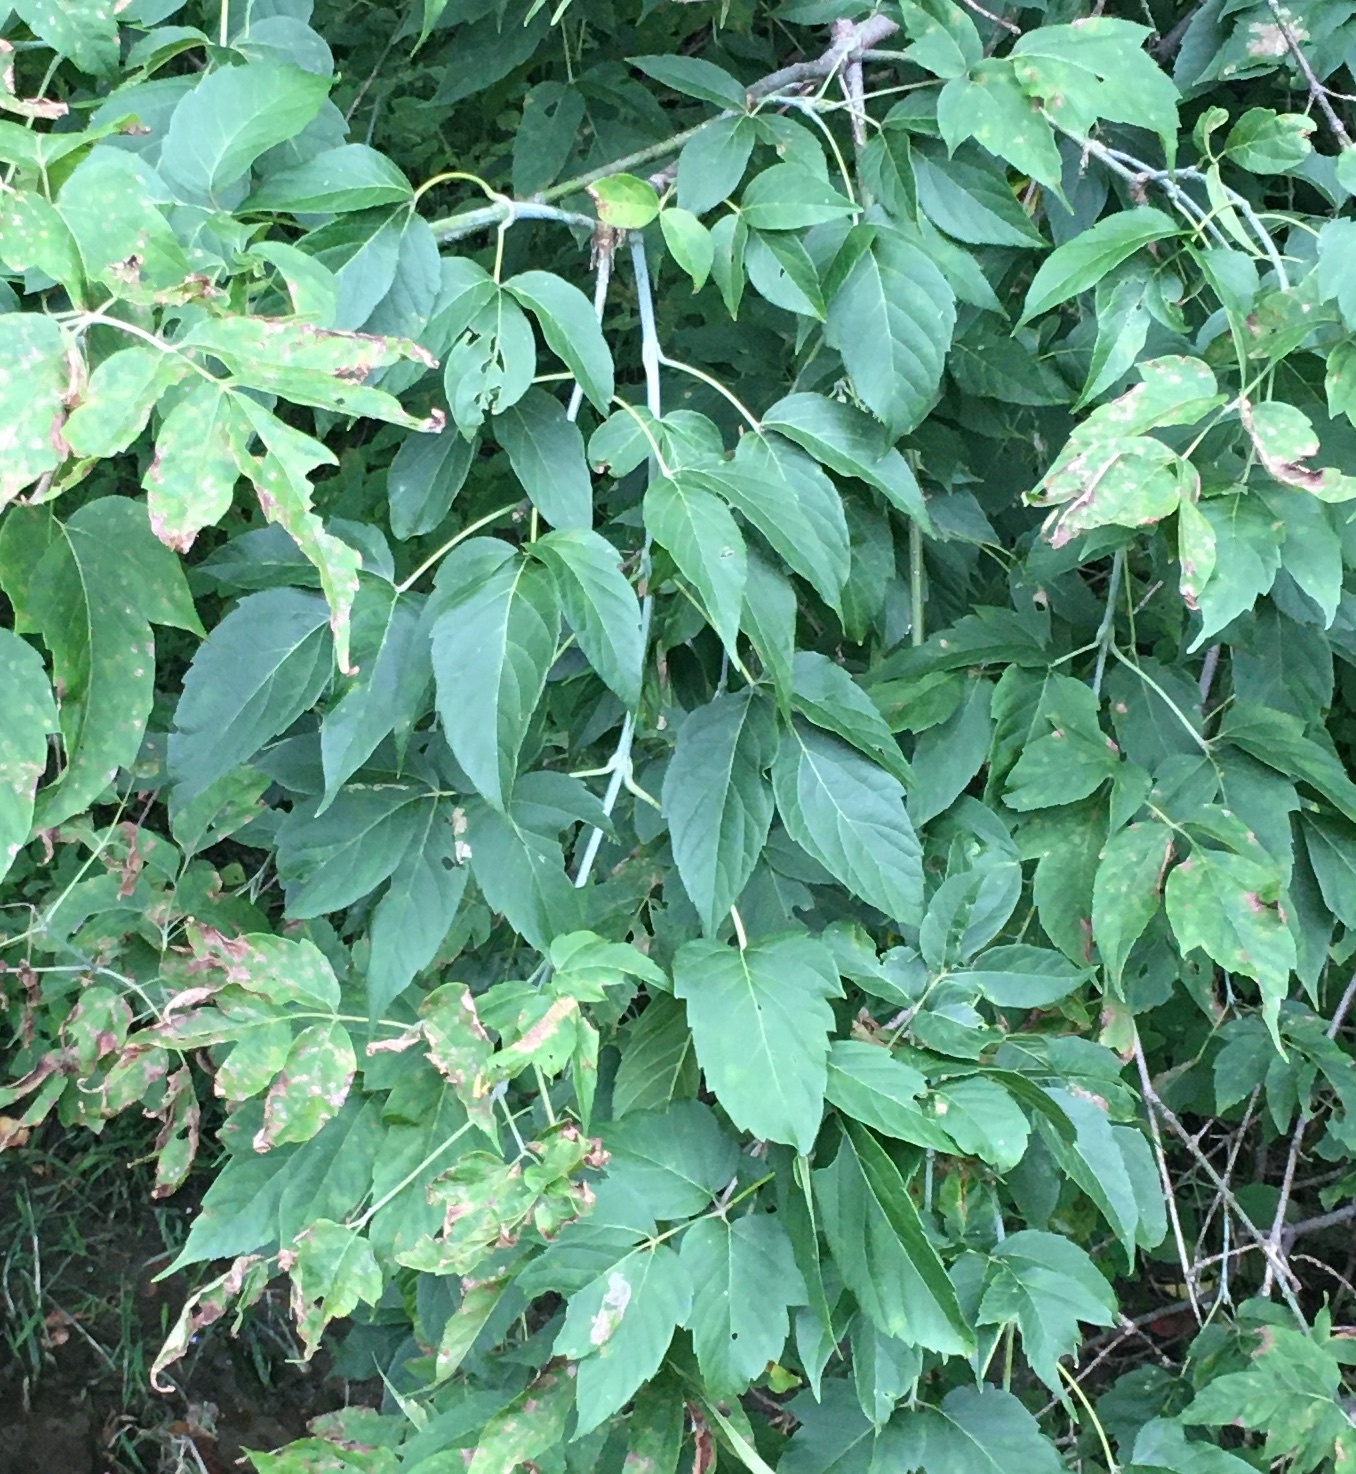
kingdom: Plantae
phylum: Tracheophyta
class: Magnoliopsida
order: Sapindales
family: Sapindaceae
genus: Acer
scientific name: Acer negundo
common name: Ashleaf maple
